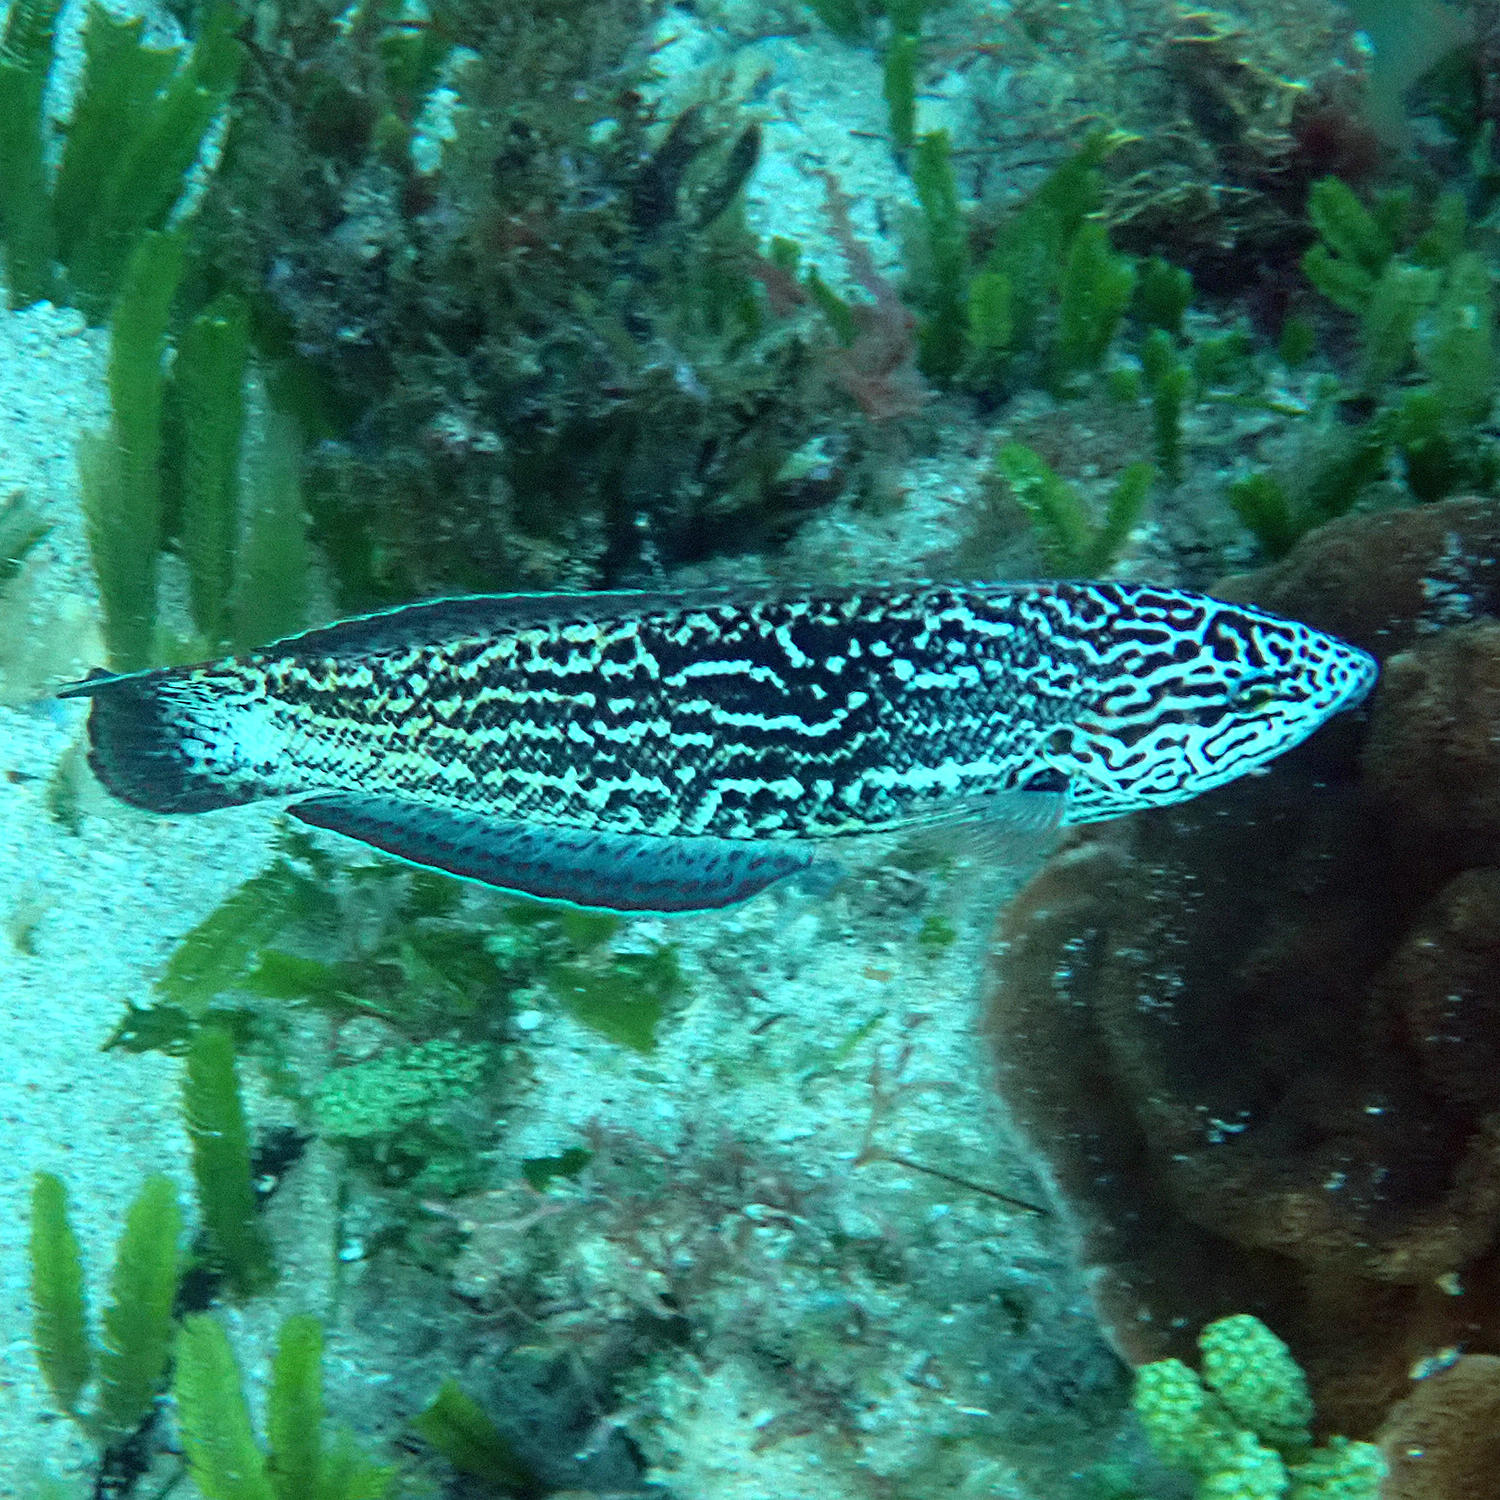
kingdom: Animalia
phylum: Chordata
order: Perciformes
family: Labridae
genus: Coris
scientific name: Coris bulbifrons
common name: Doubleheader
